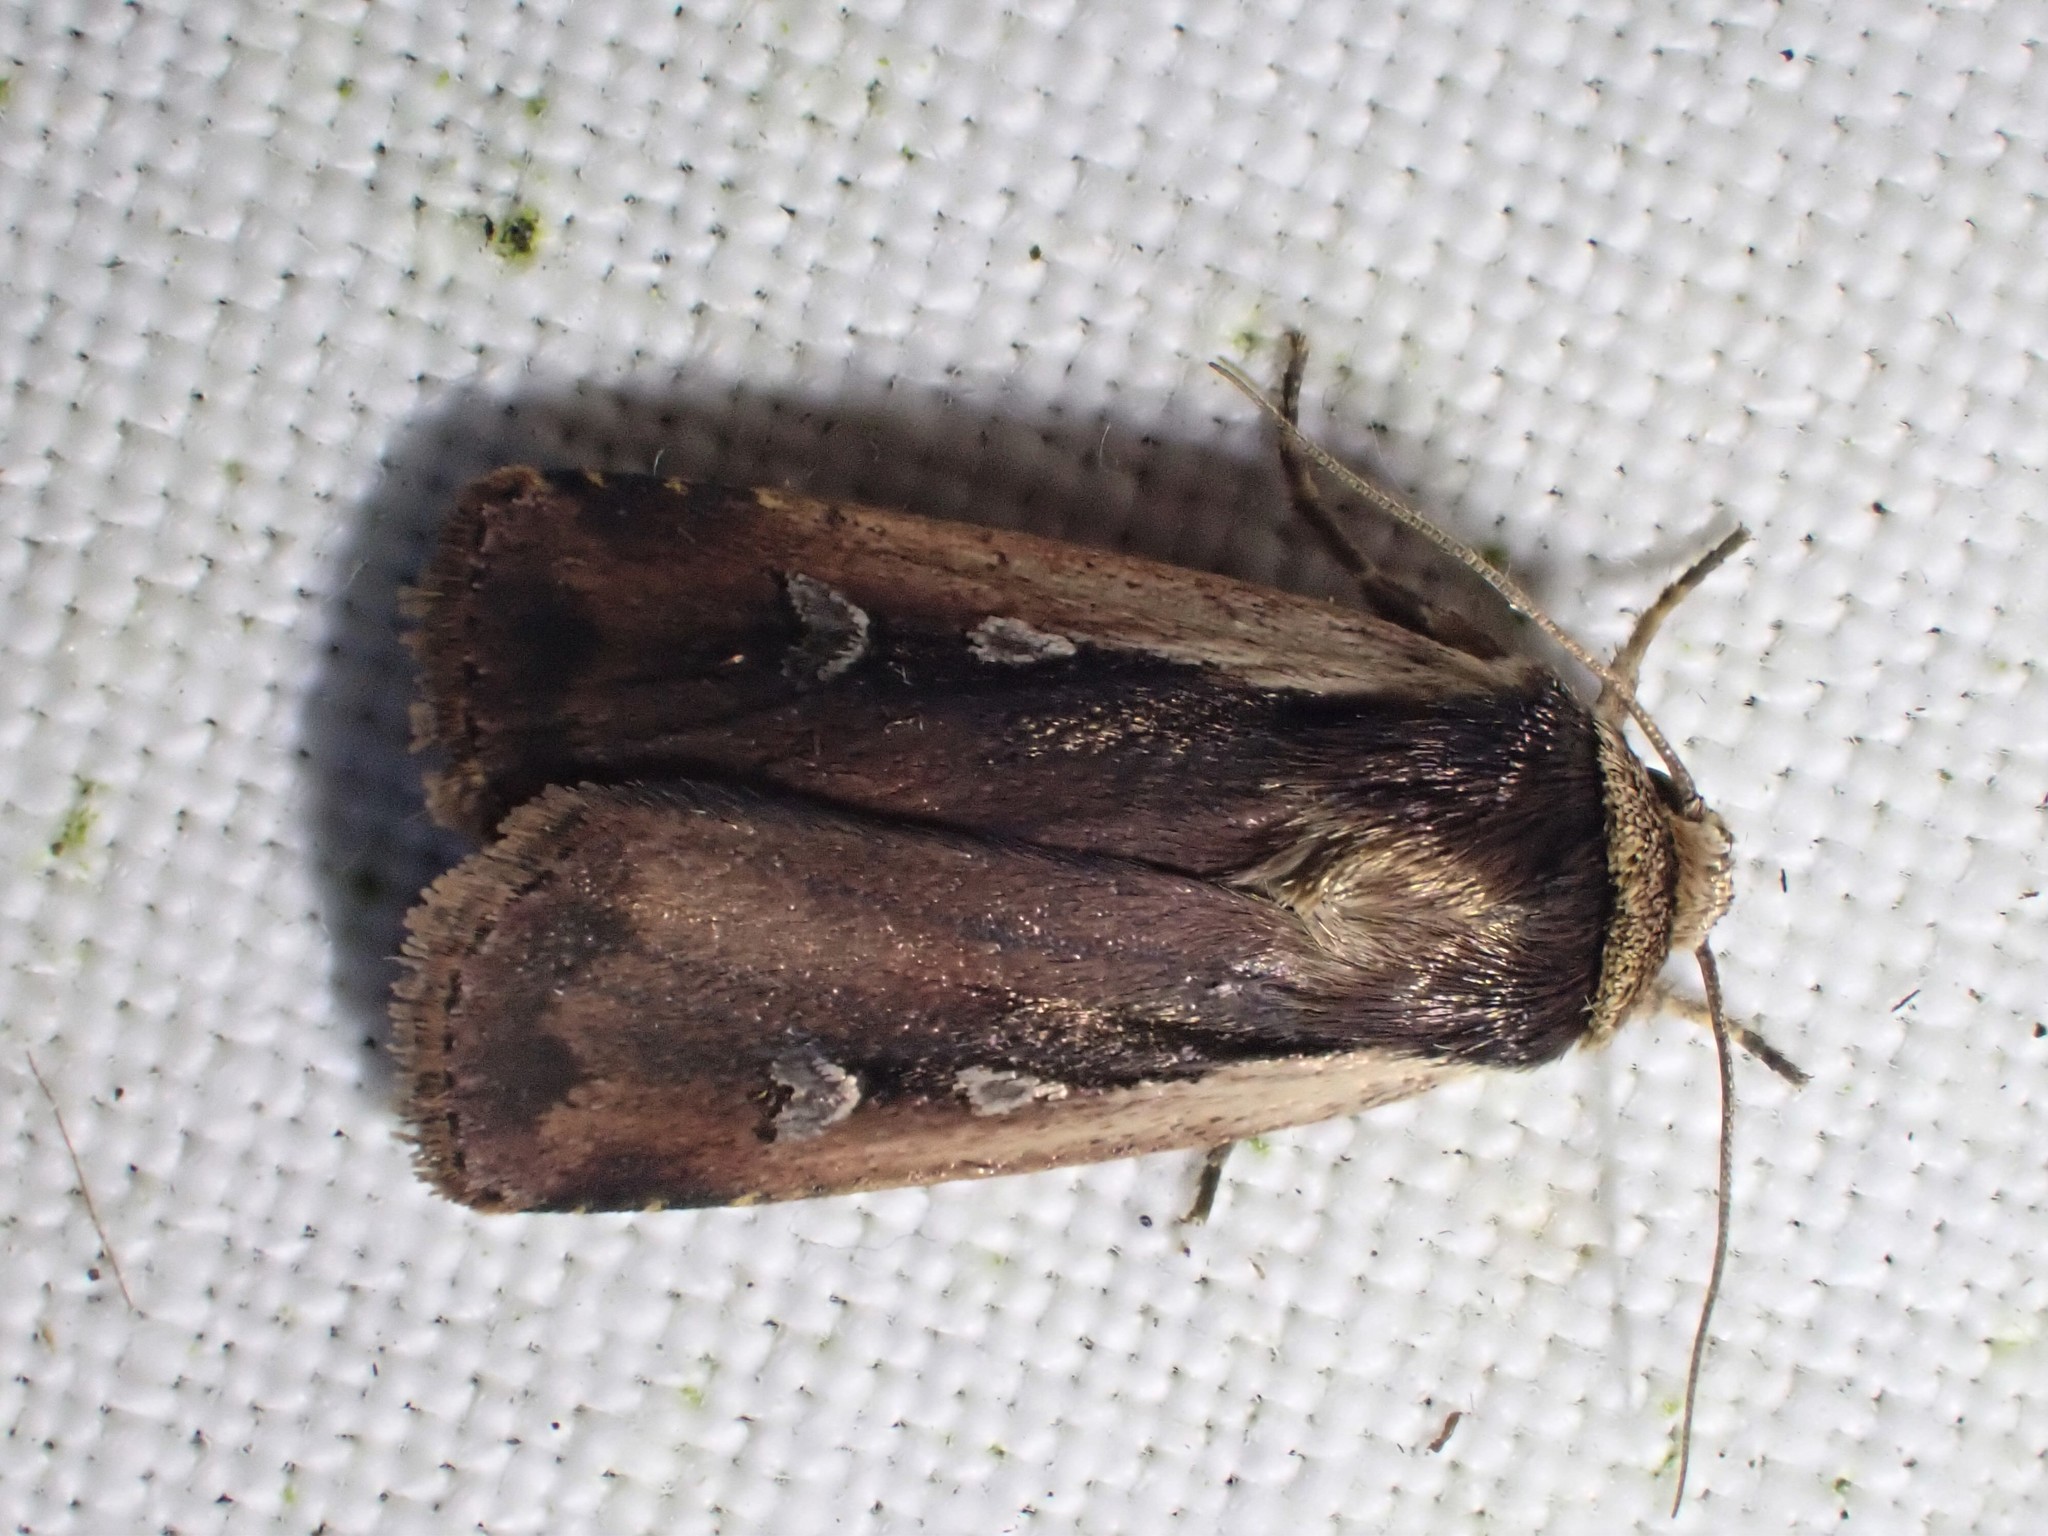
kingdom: Animalia
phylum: Arthropoda
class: Insecta
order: Lepidoptera
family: Noctuidae
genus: Ochropleura
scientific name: Ochropleura plecta
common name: Flame shoulder
